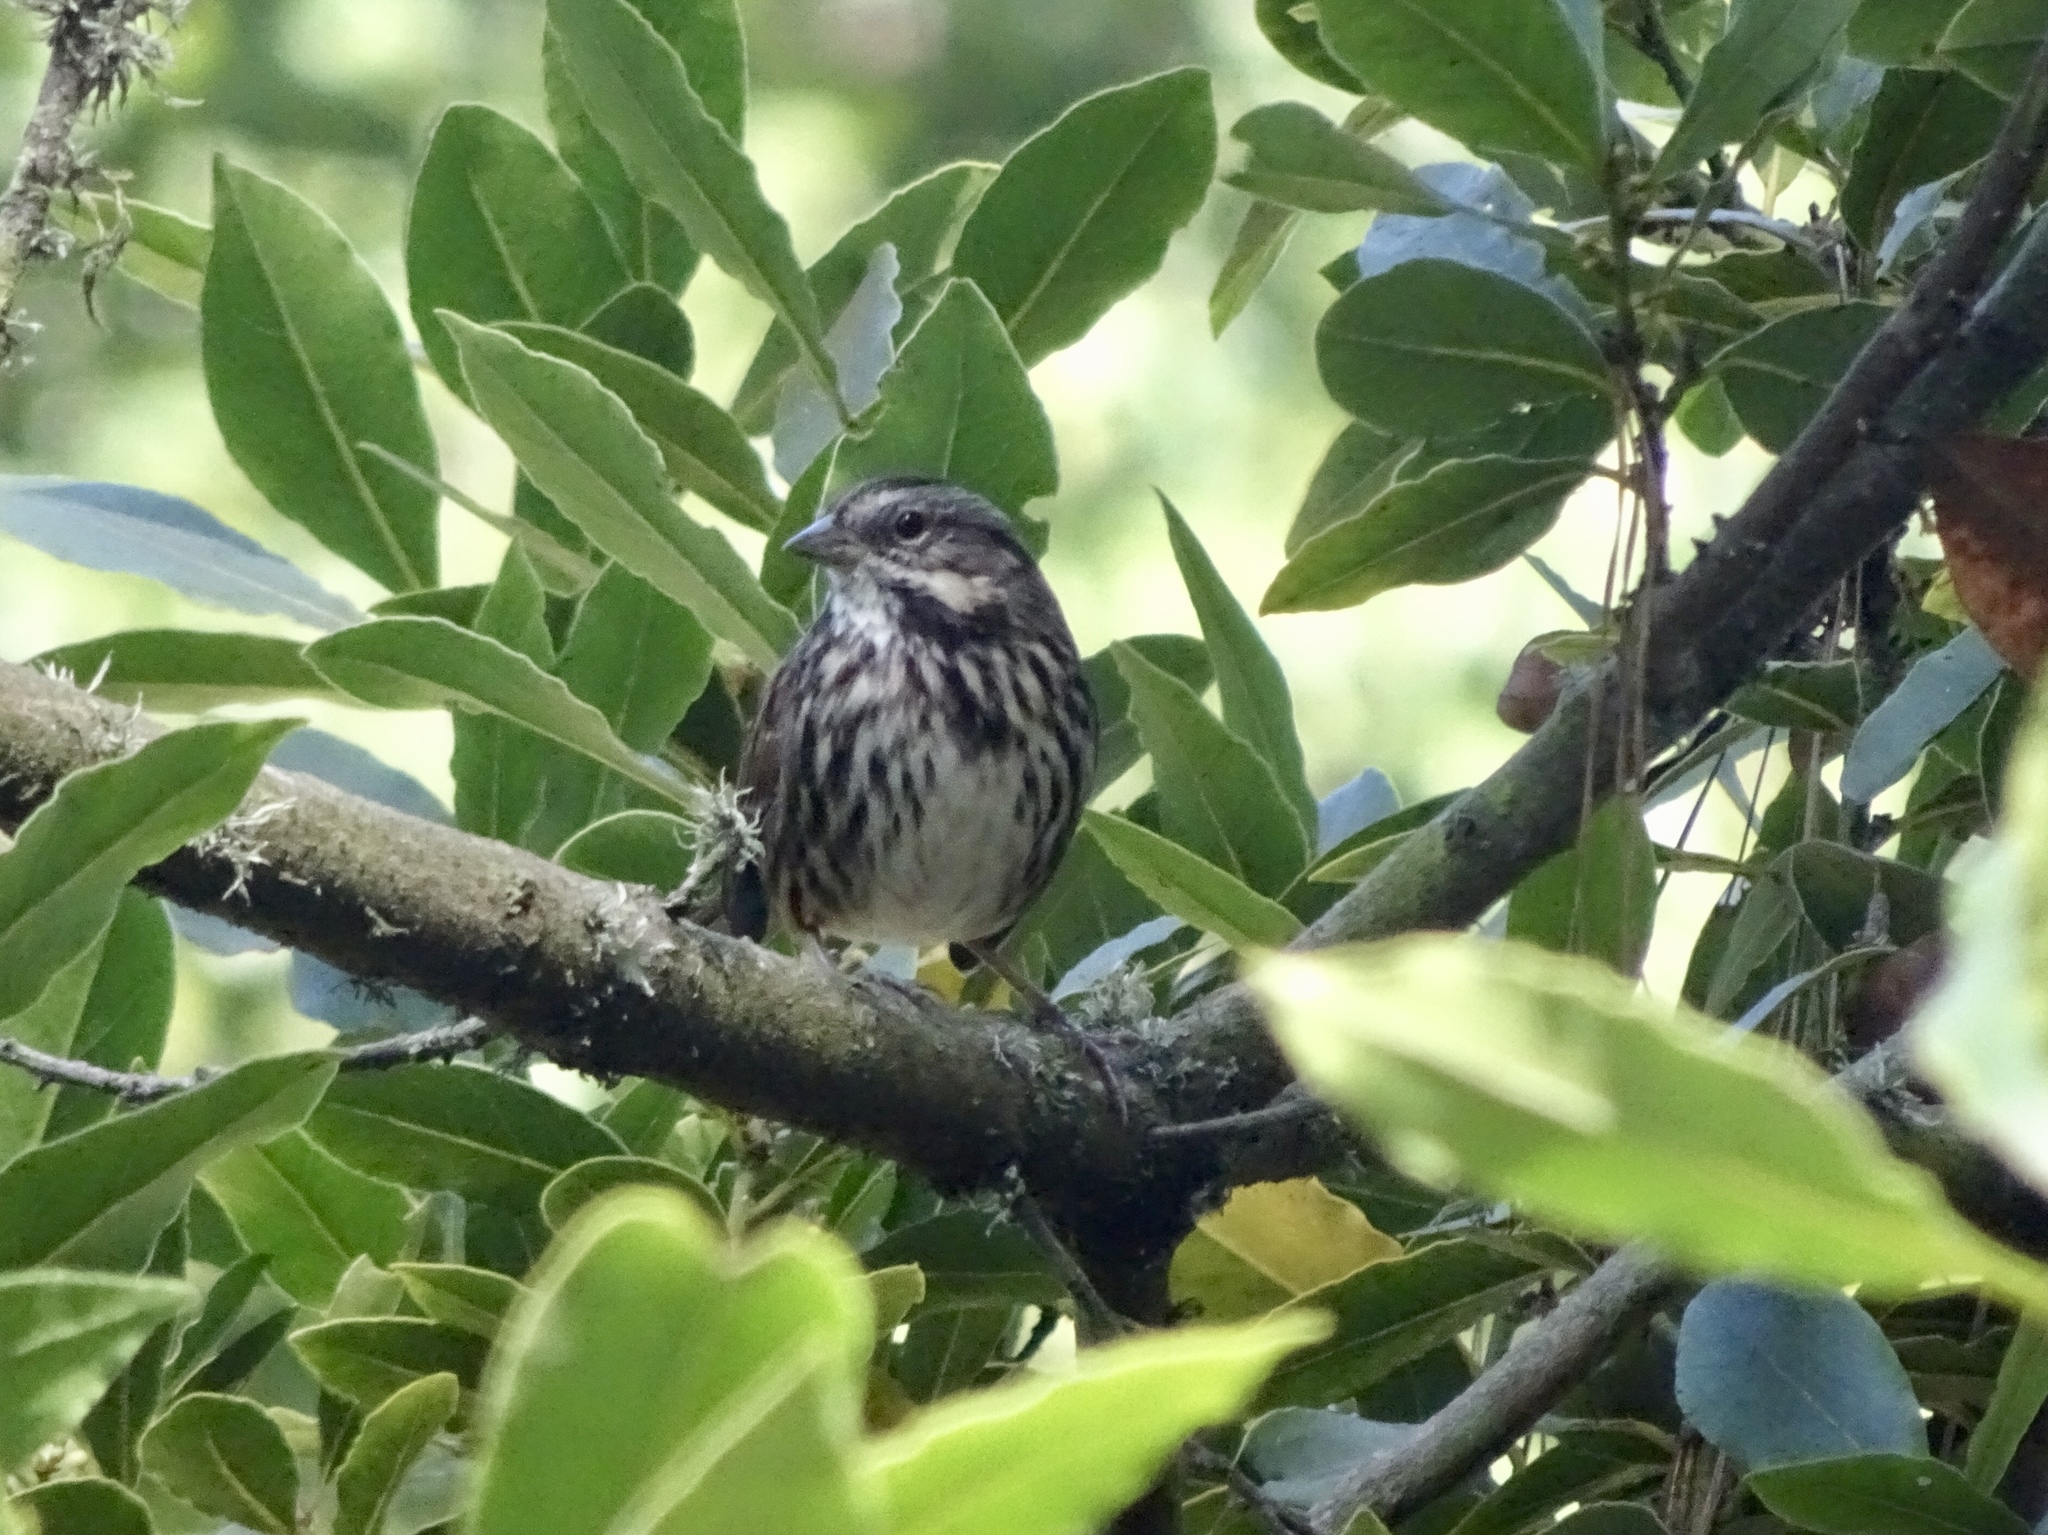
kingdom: Animalia
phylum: Chordata
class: Aves
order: Passeriformes
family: Passerellidae
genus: Melospiza
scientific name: Melospiza melodia
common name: Song sparrow
